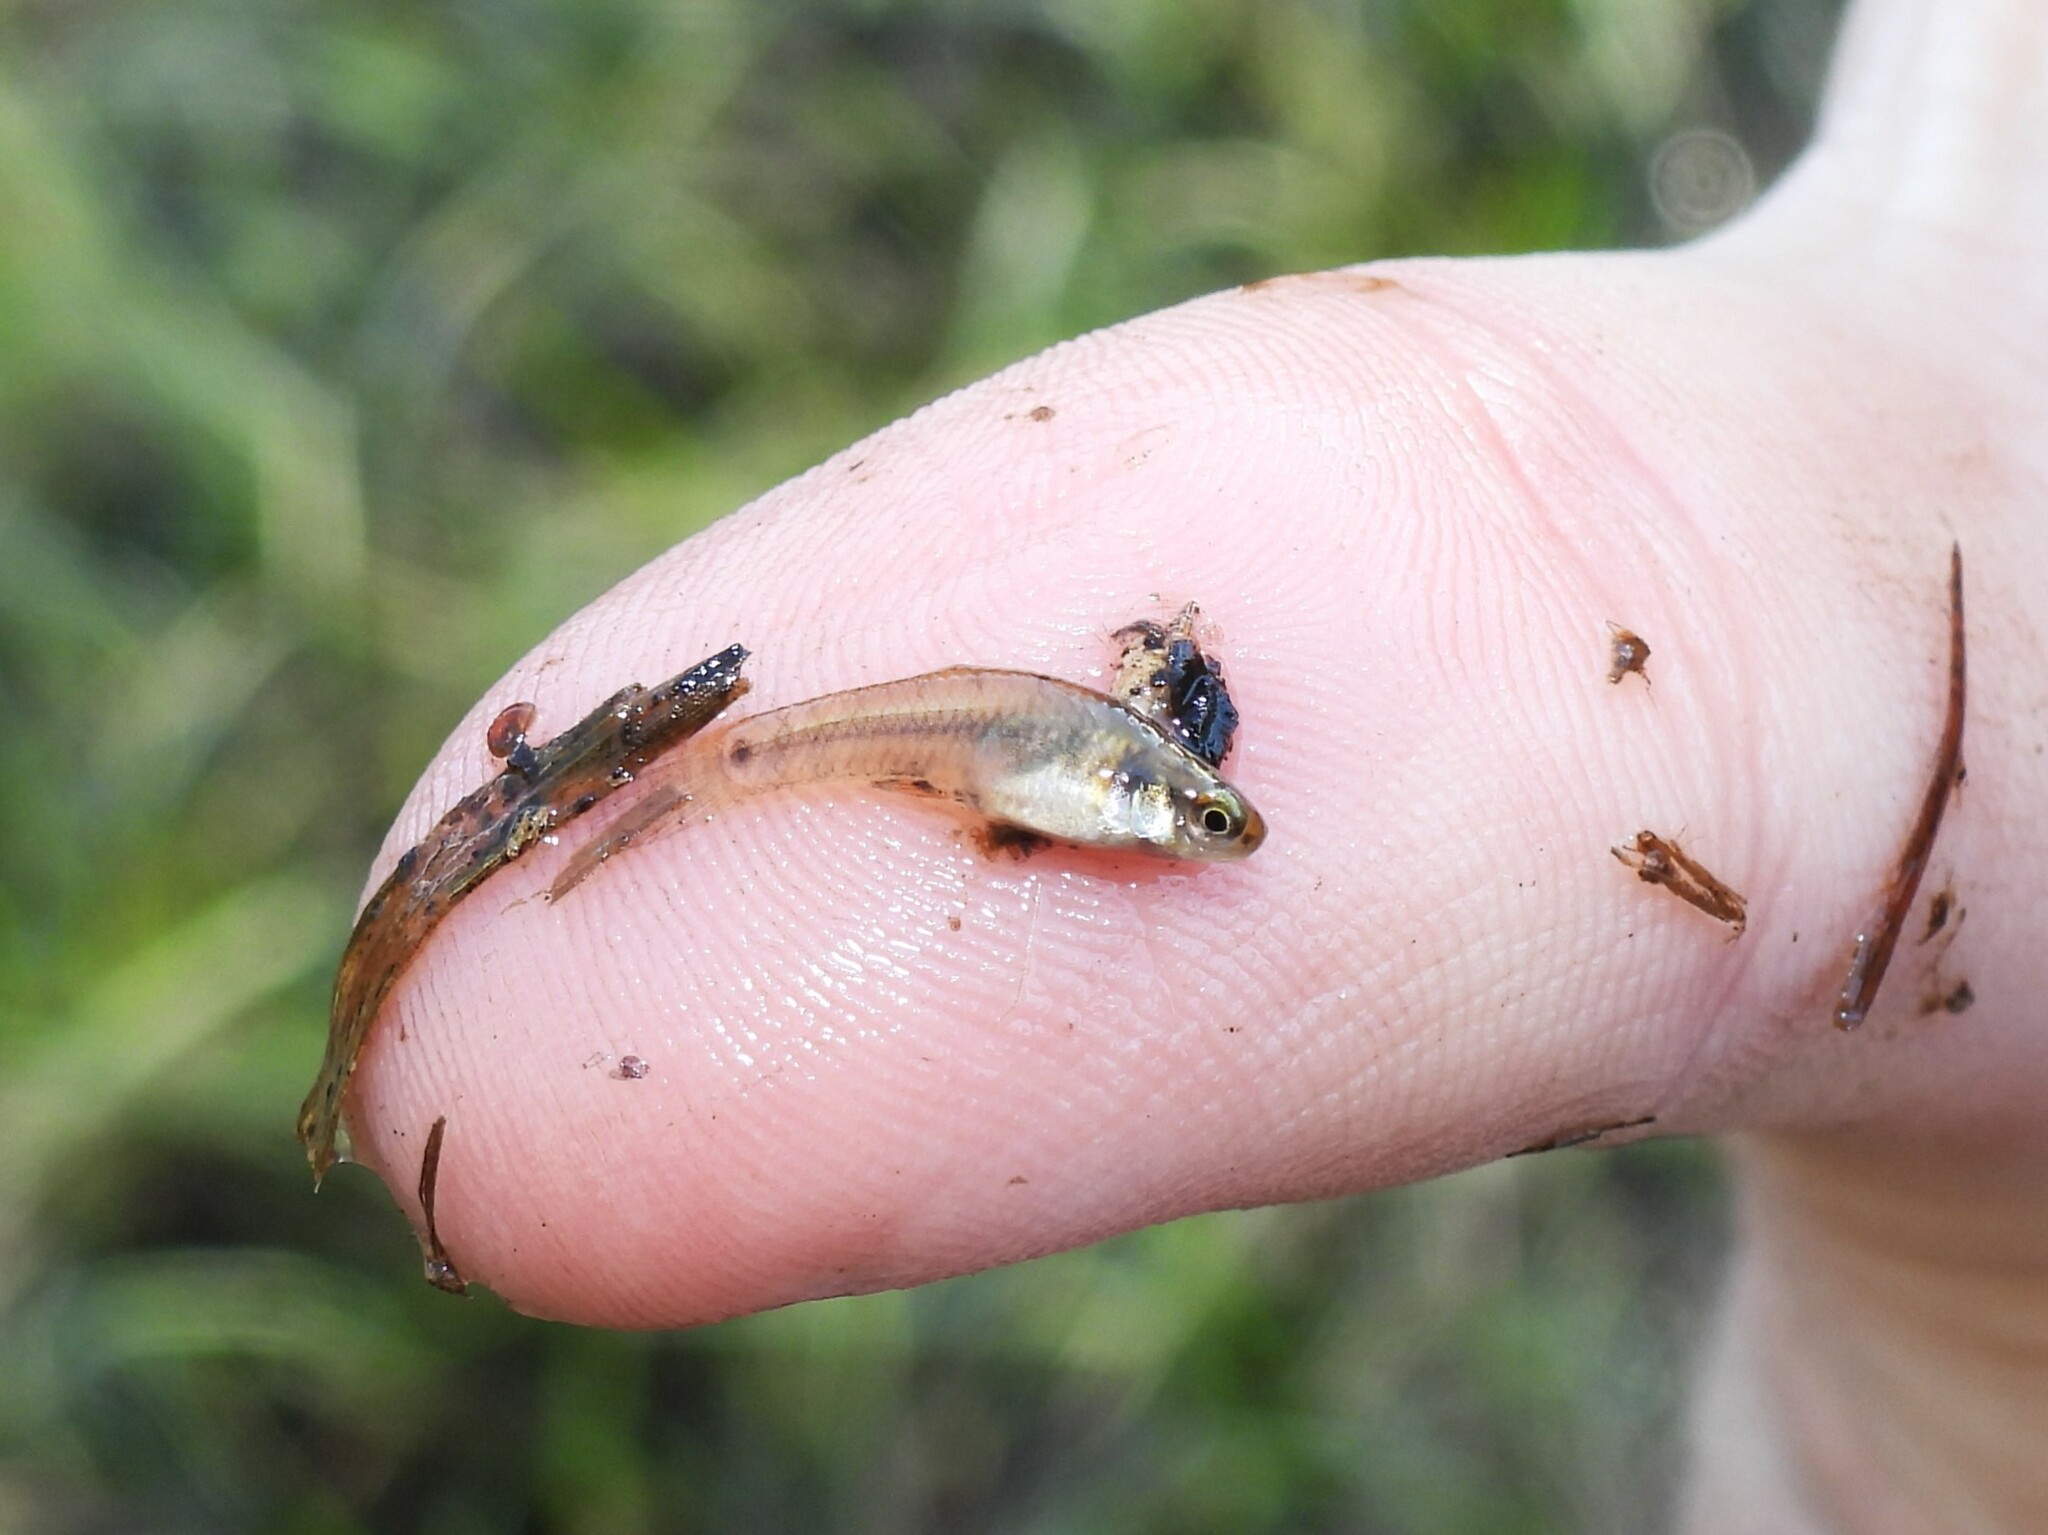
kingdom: Animalia
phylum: Chordata
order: Cyprinodontiformes
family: Poeciliidae
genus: Heterandria
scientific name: Heterandria formosa
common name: Least killifish
